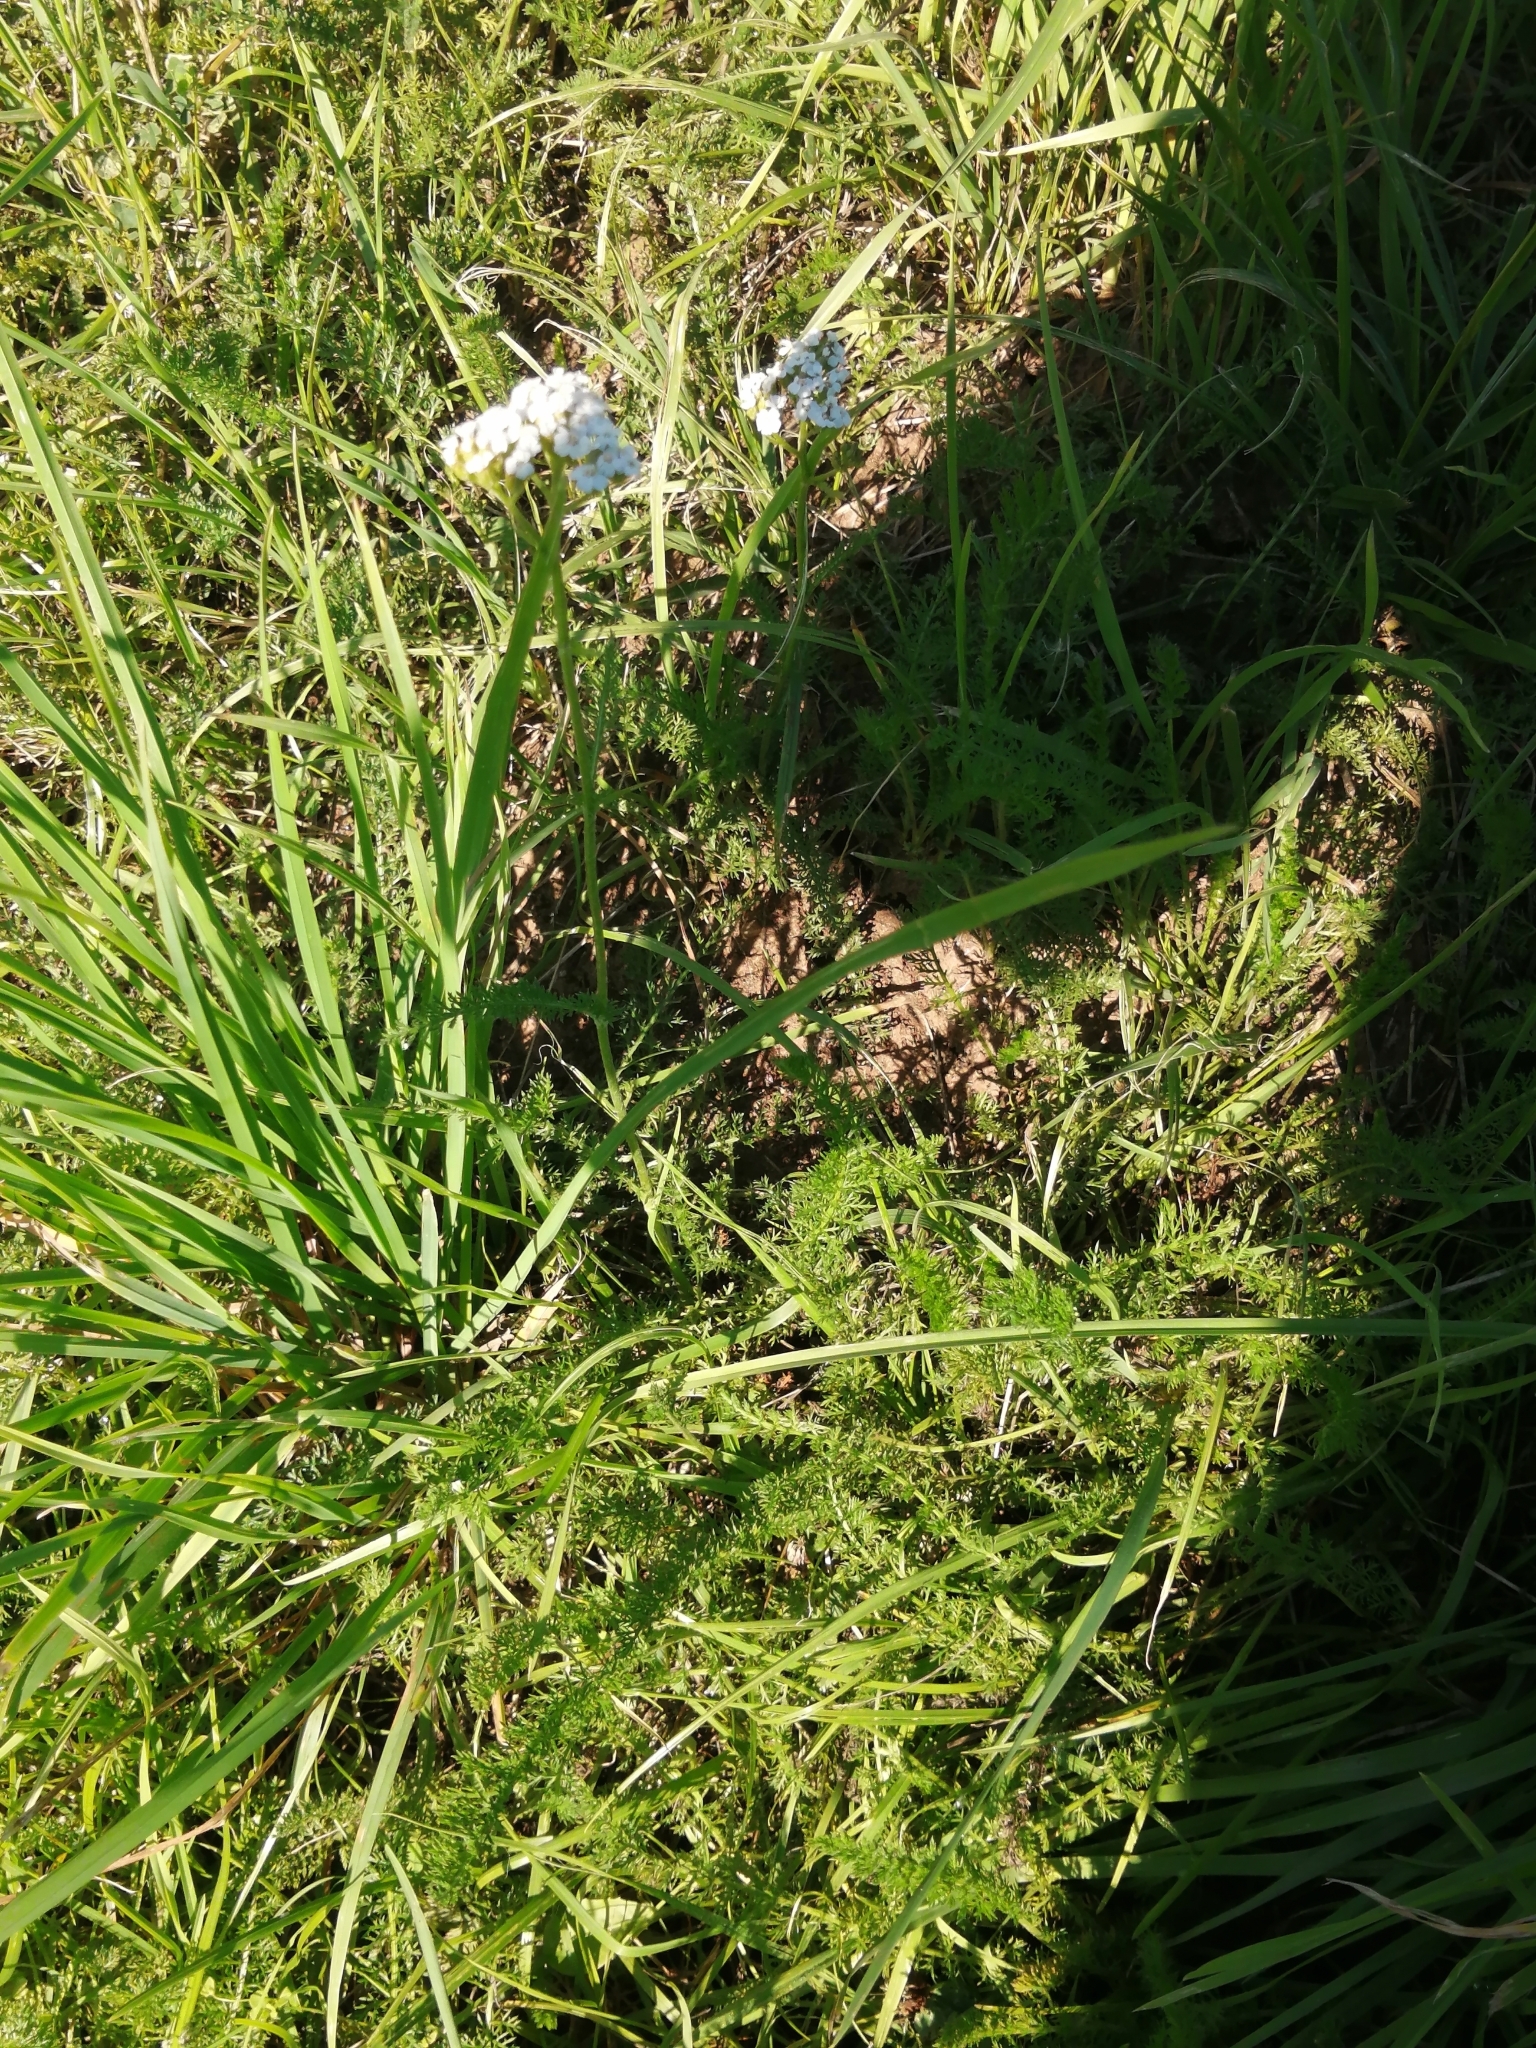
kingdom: Plantae
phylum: Tracheophyta
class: Magnoliopsida
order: Asterales
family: Asteraceae
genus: Achillea
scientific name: Achillea millefolium
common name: Yarrow
